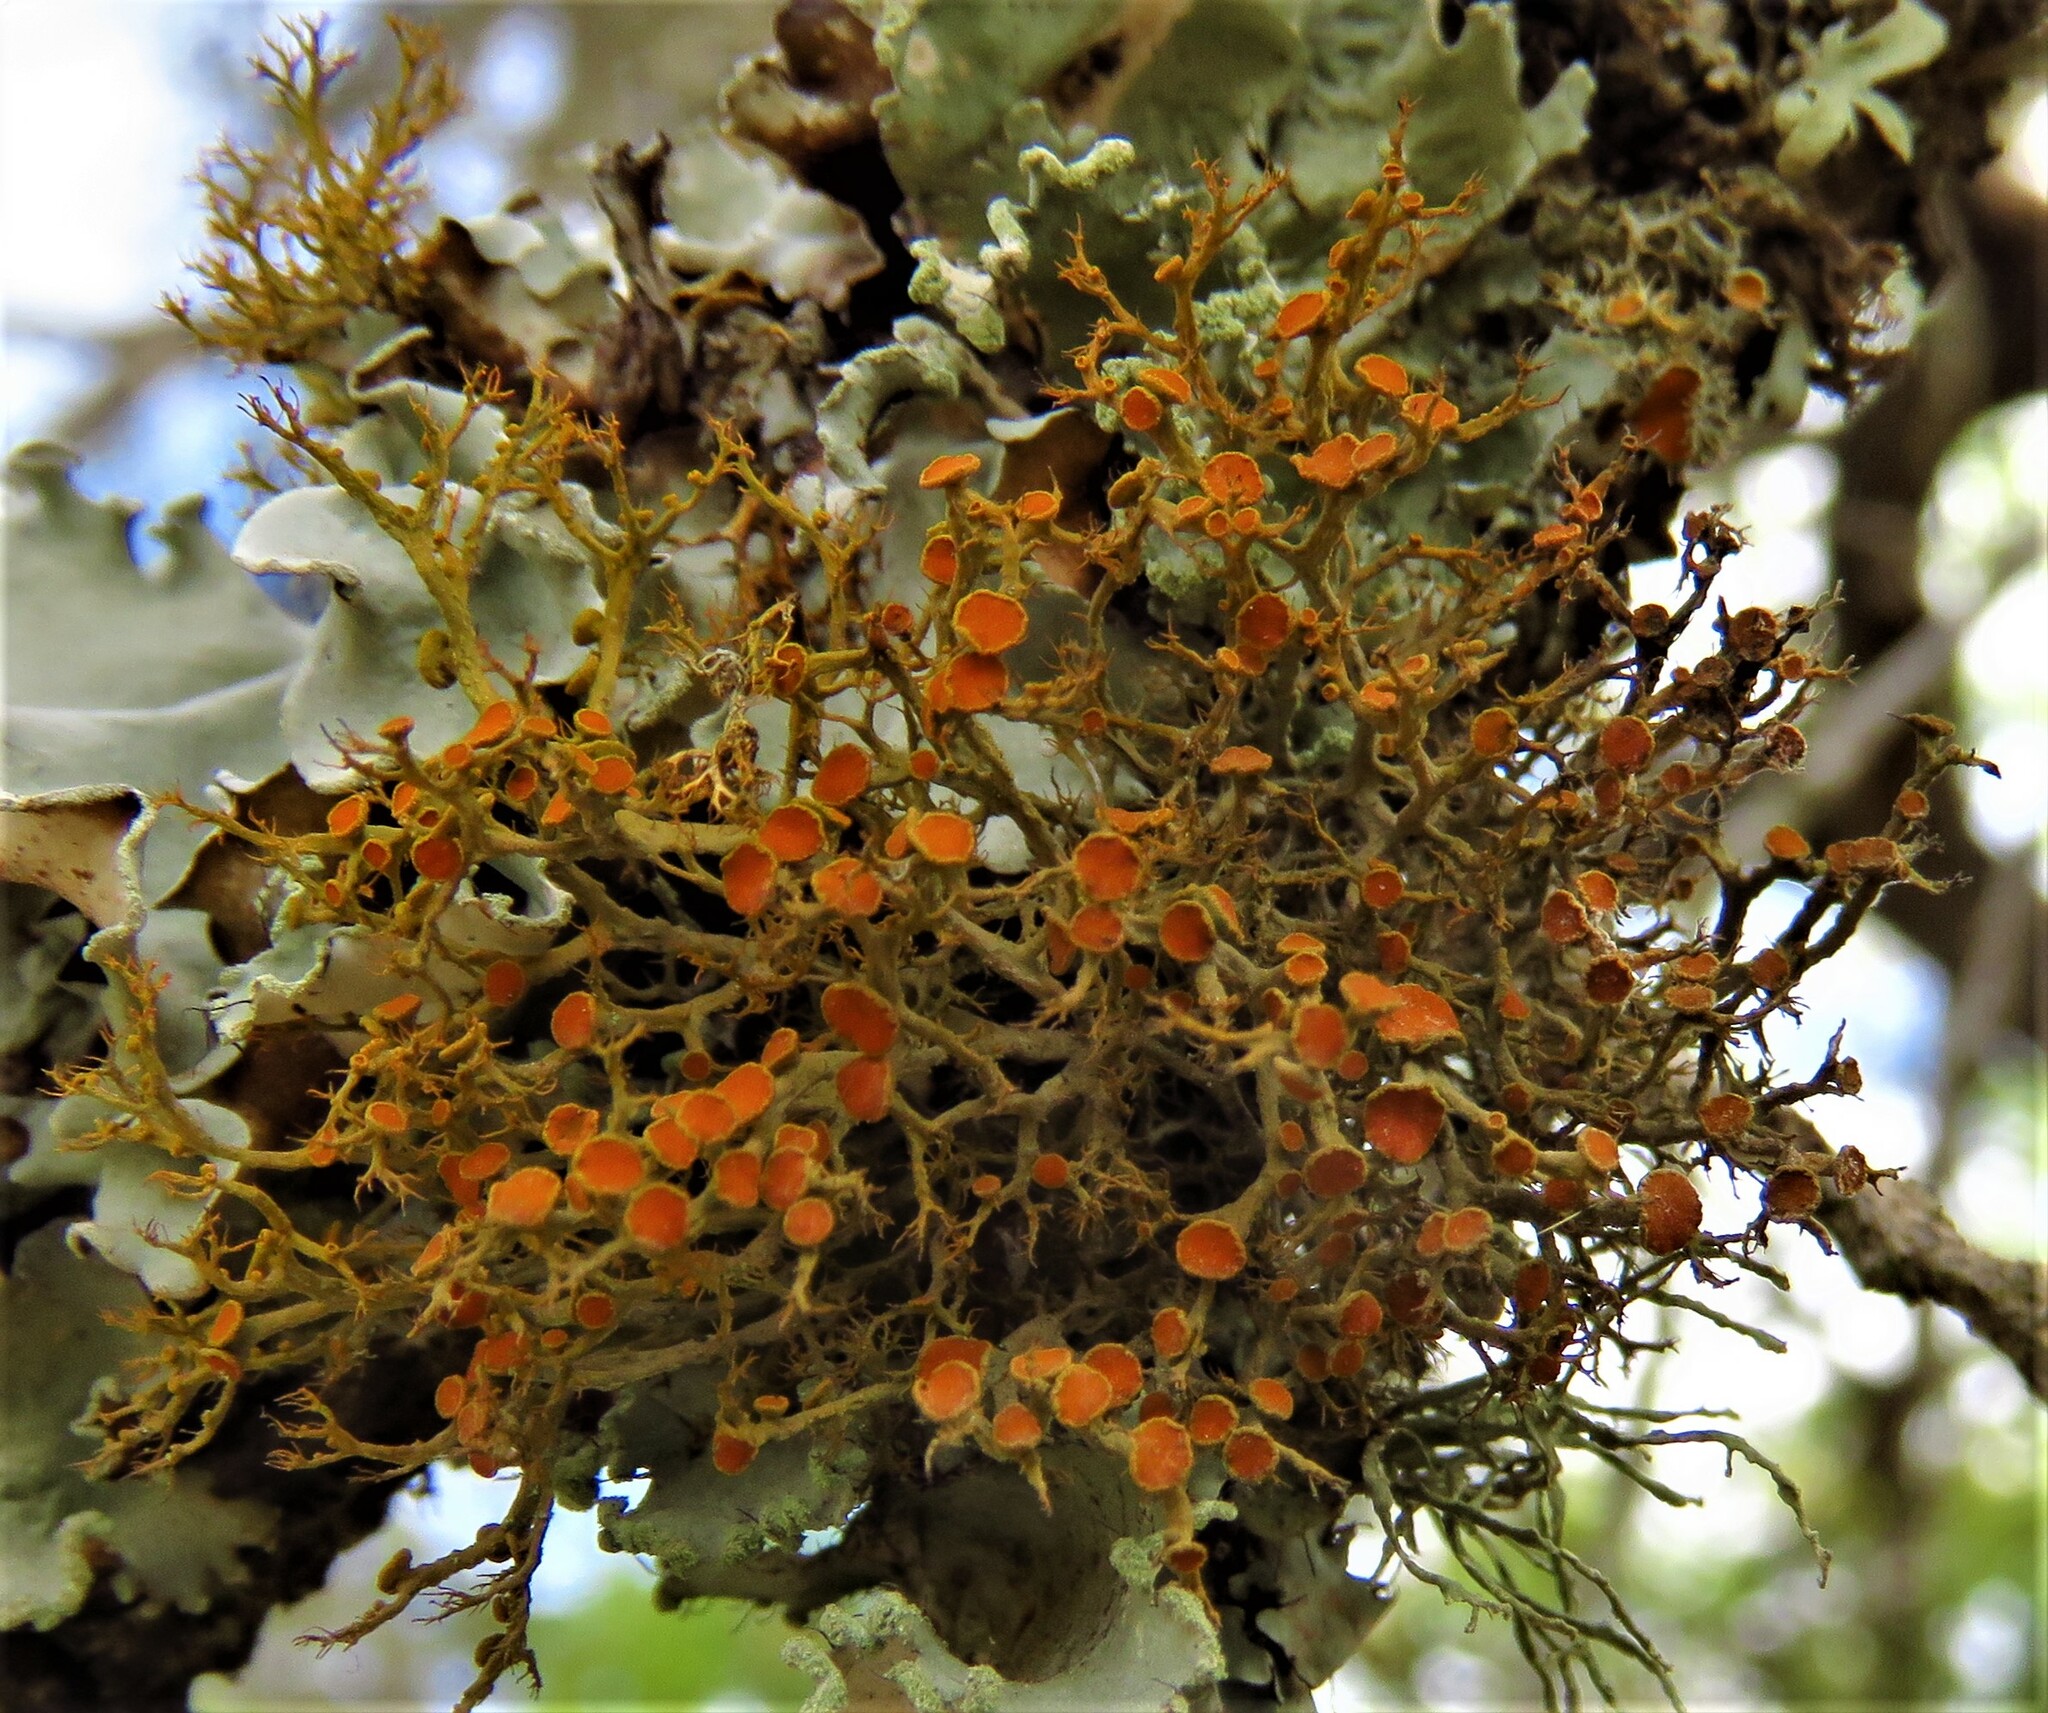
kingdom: Fungi
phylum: Ascomycota
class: Lecanoromycetes
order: Teloschistales
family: Teloschistaceae
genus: Teloschistes
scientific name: Teloschistes exilis
